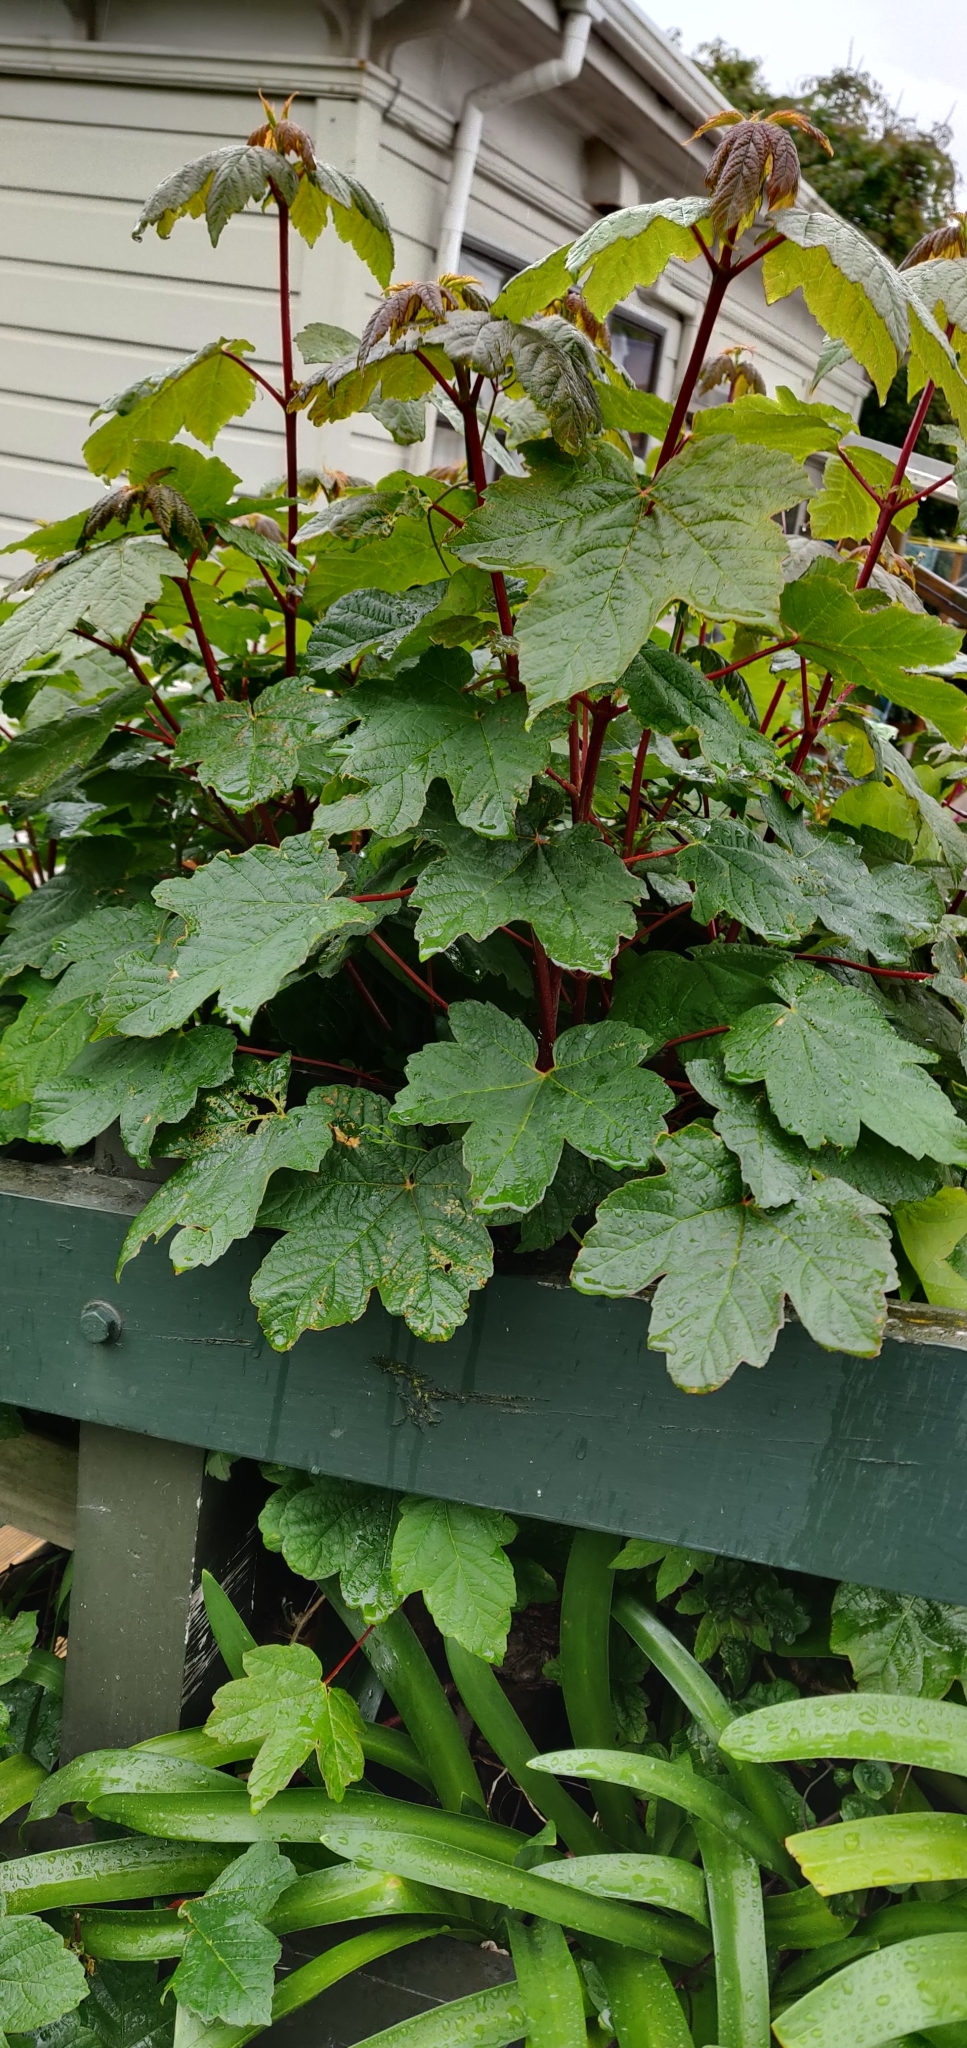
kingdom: Plantae
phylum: Tracheophyta
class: Magnoliopsida
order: Sapindales
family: Sapindaceae
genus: Acer
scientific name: Acer pseudoplatanus
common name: Sycamore
